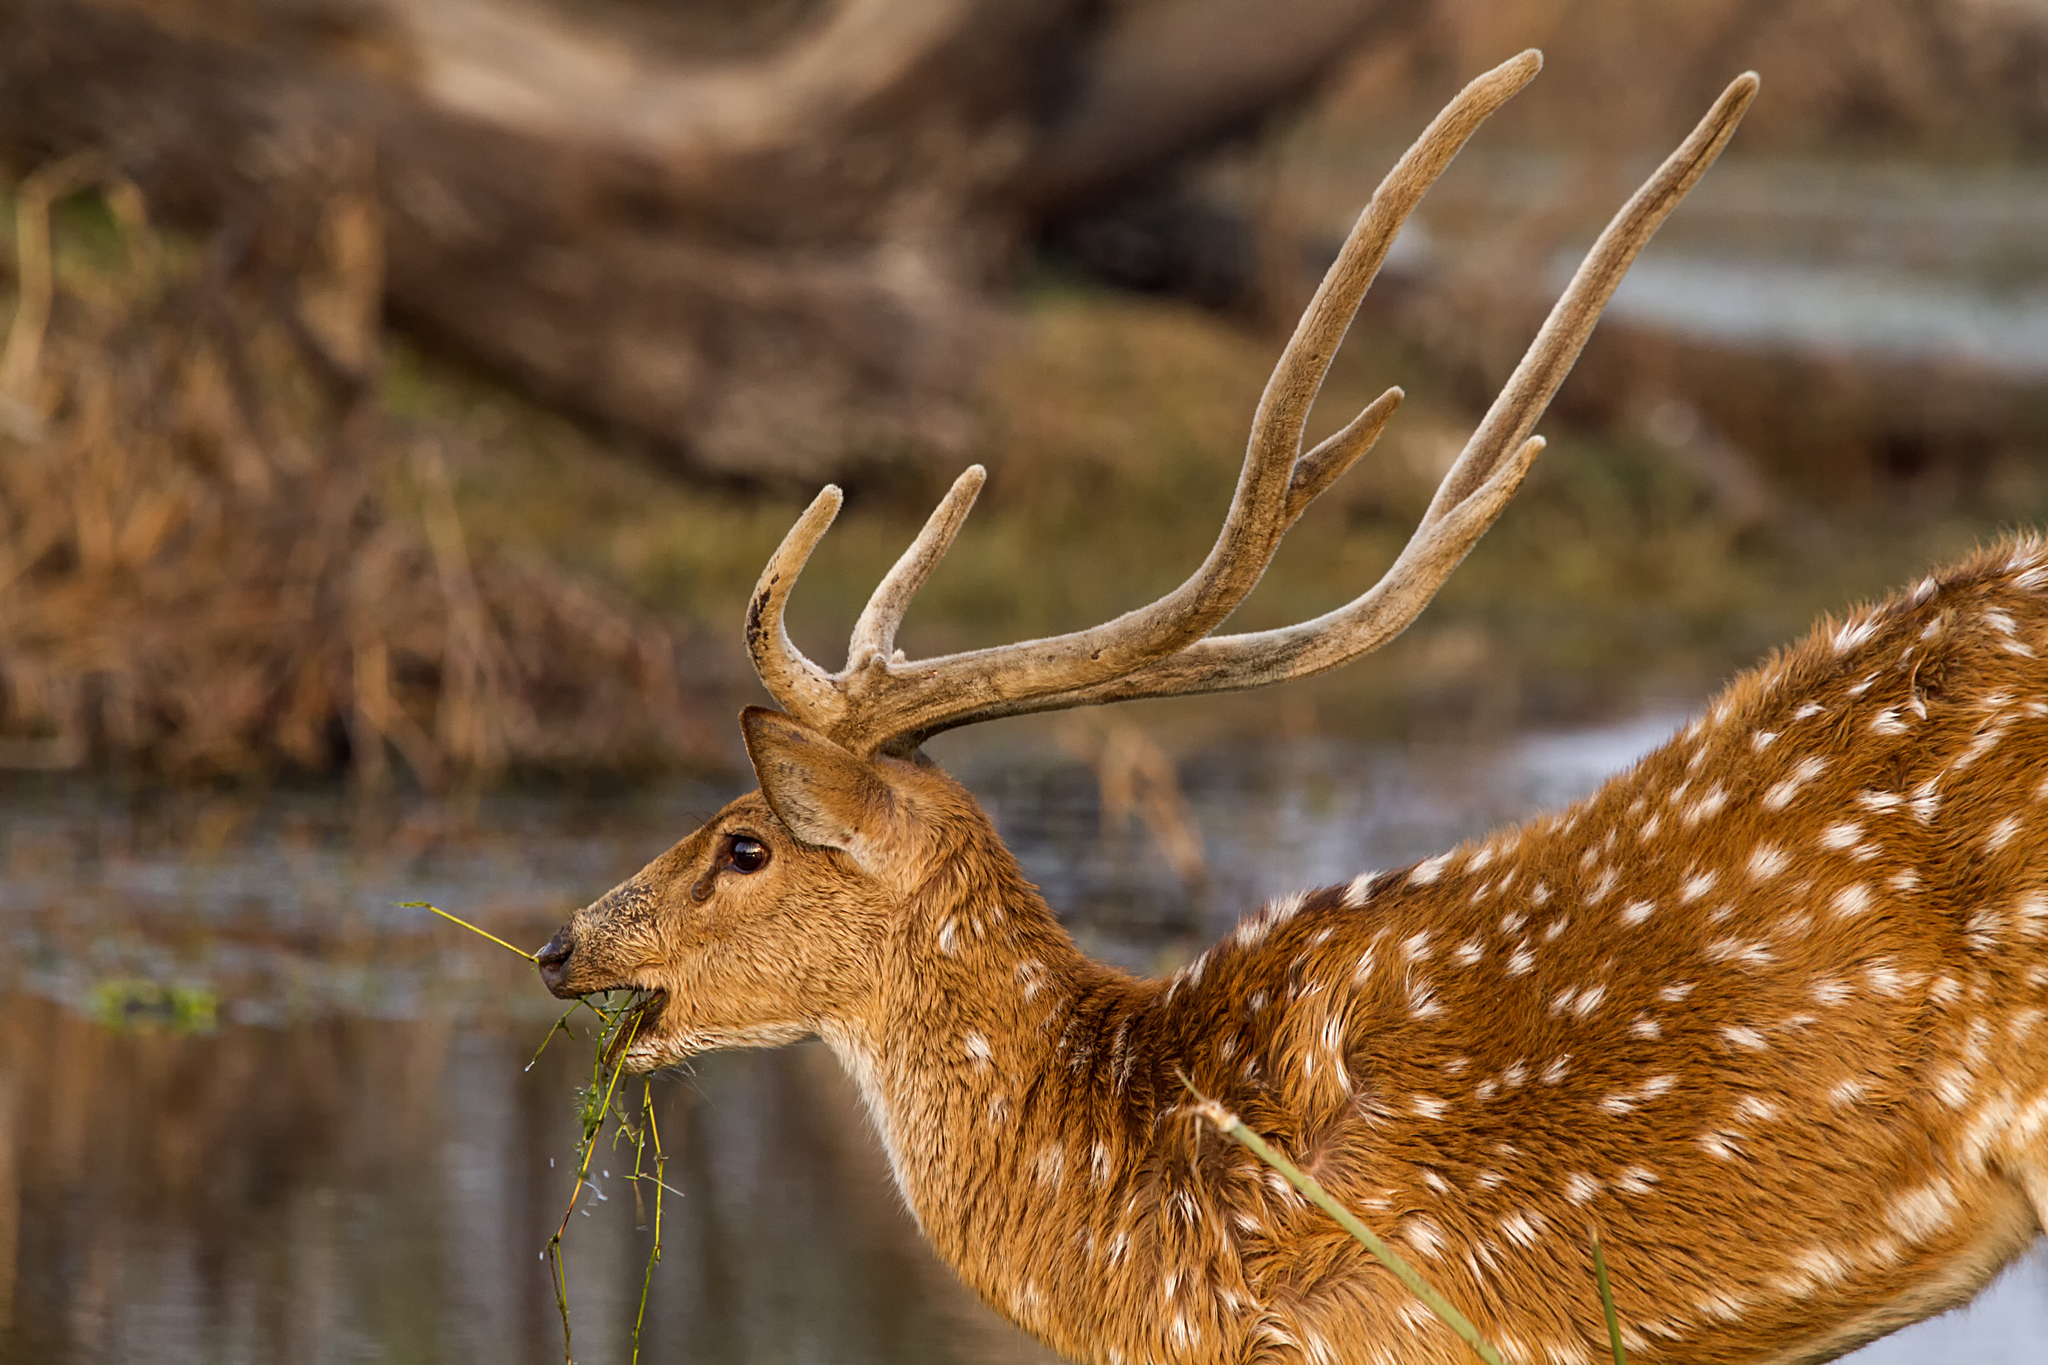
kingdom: Animalia
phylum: Chordata
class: Mammalia
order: Artiodactyla
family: Cervidae
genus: Axis
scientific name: Axis axis
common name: Chital
